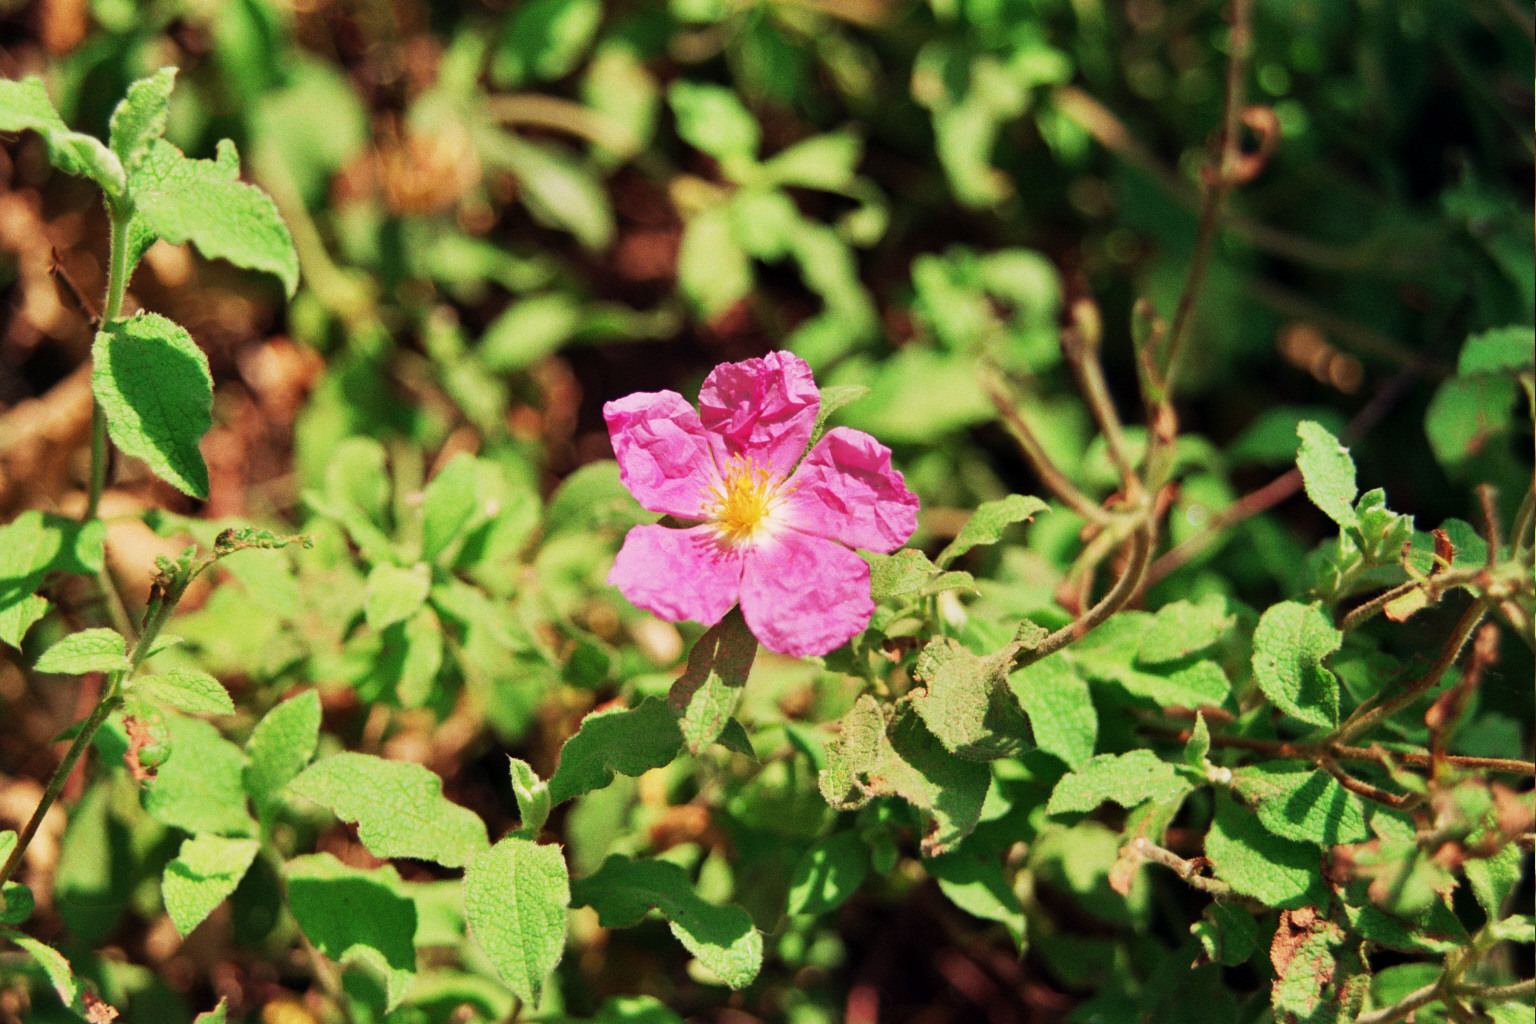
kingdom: Plantae
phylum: Tracheophyta
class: Magnoliopsida
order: Malvales
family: Cistaceae
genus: Cistus
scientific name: Cistus creticus
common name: Cretan rockrose
